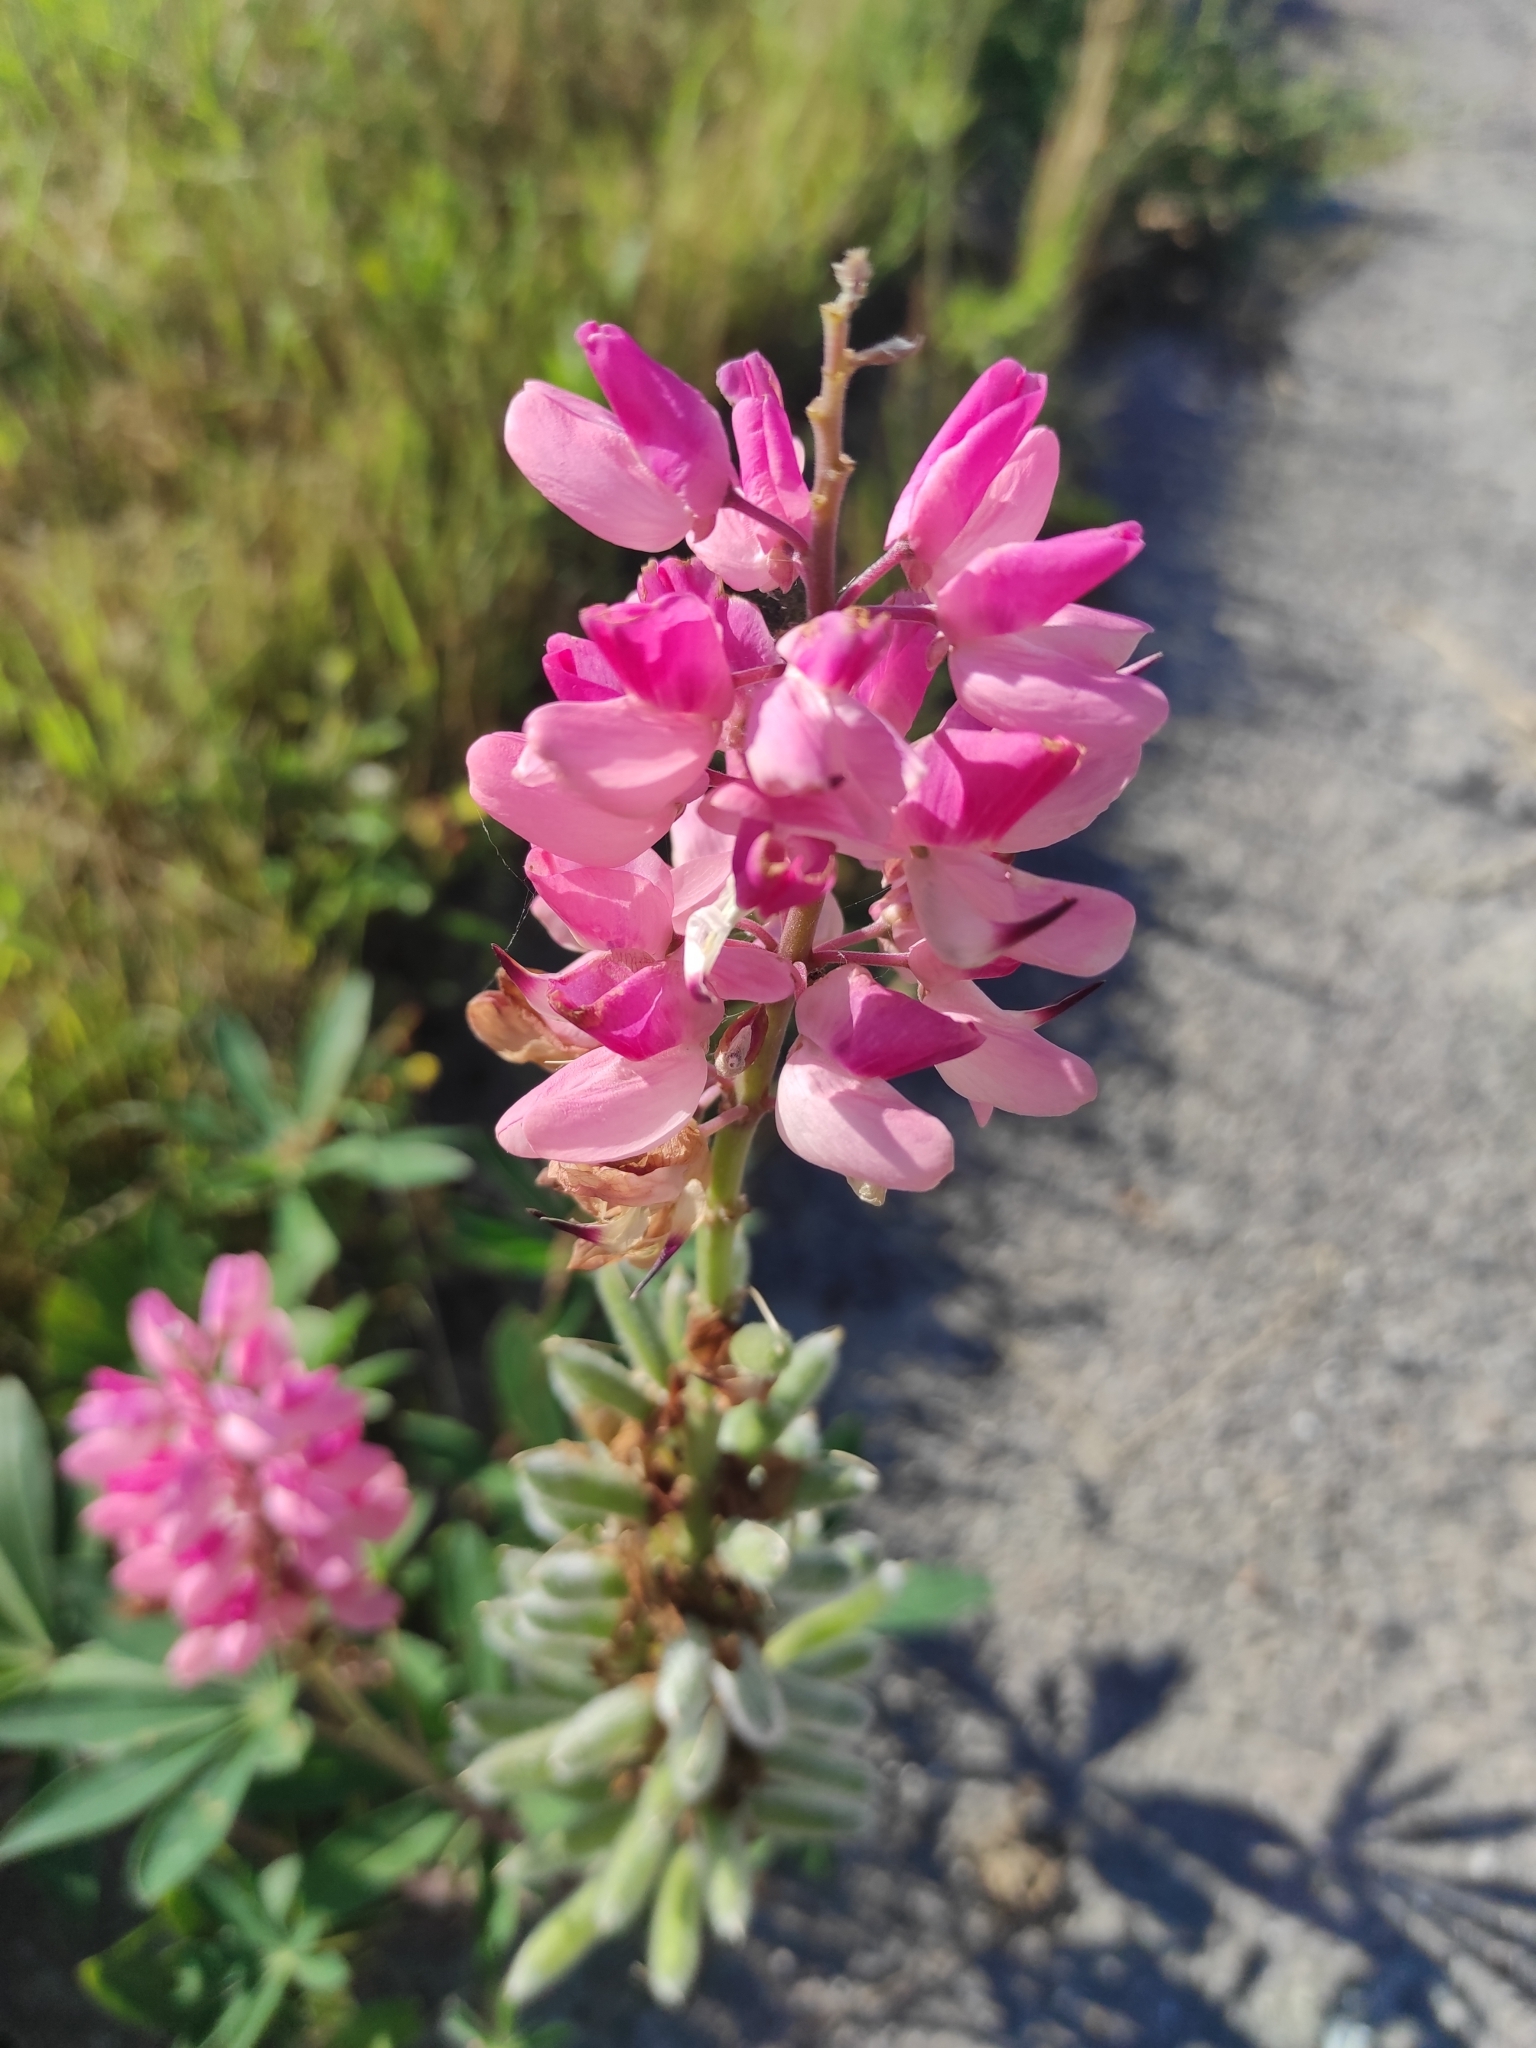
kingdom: Plantae
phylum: Tracheophyta
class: Magnoliopsida
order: Fabales
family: Fabaceae
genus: Lupinus
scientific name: Lupinus polyphyllus
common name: Garden lupin
